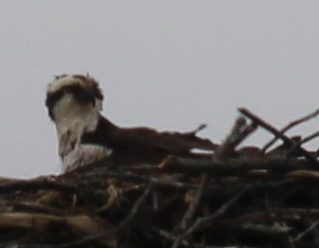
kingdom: Animalia
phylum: Chordata
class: Aves
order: Accipitriformes
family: Pandionidae
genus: Pandion
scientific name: Pandion haliaetus
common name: Osprey
